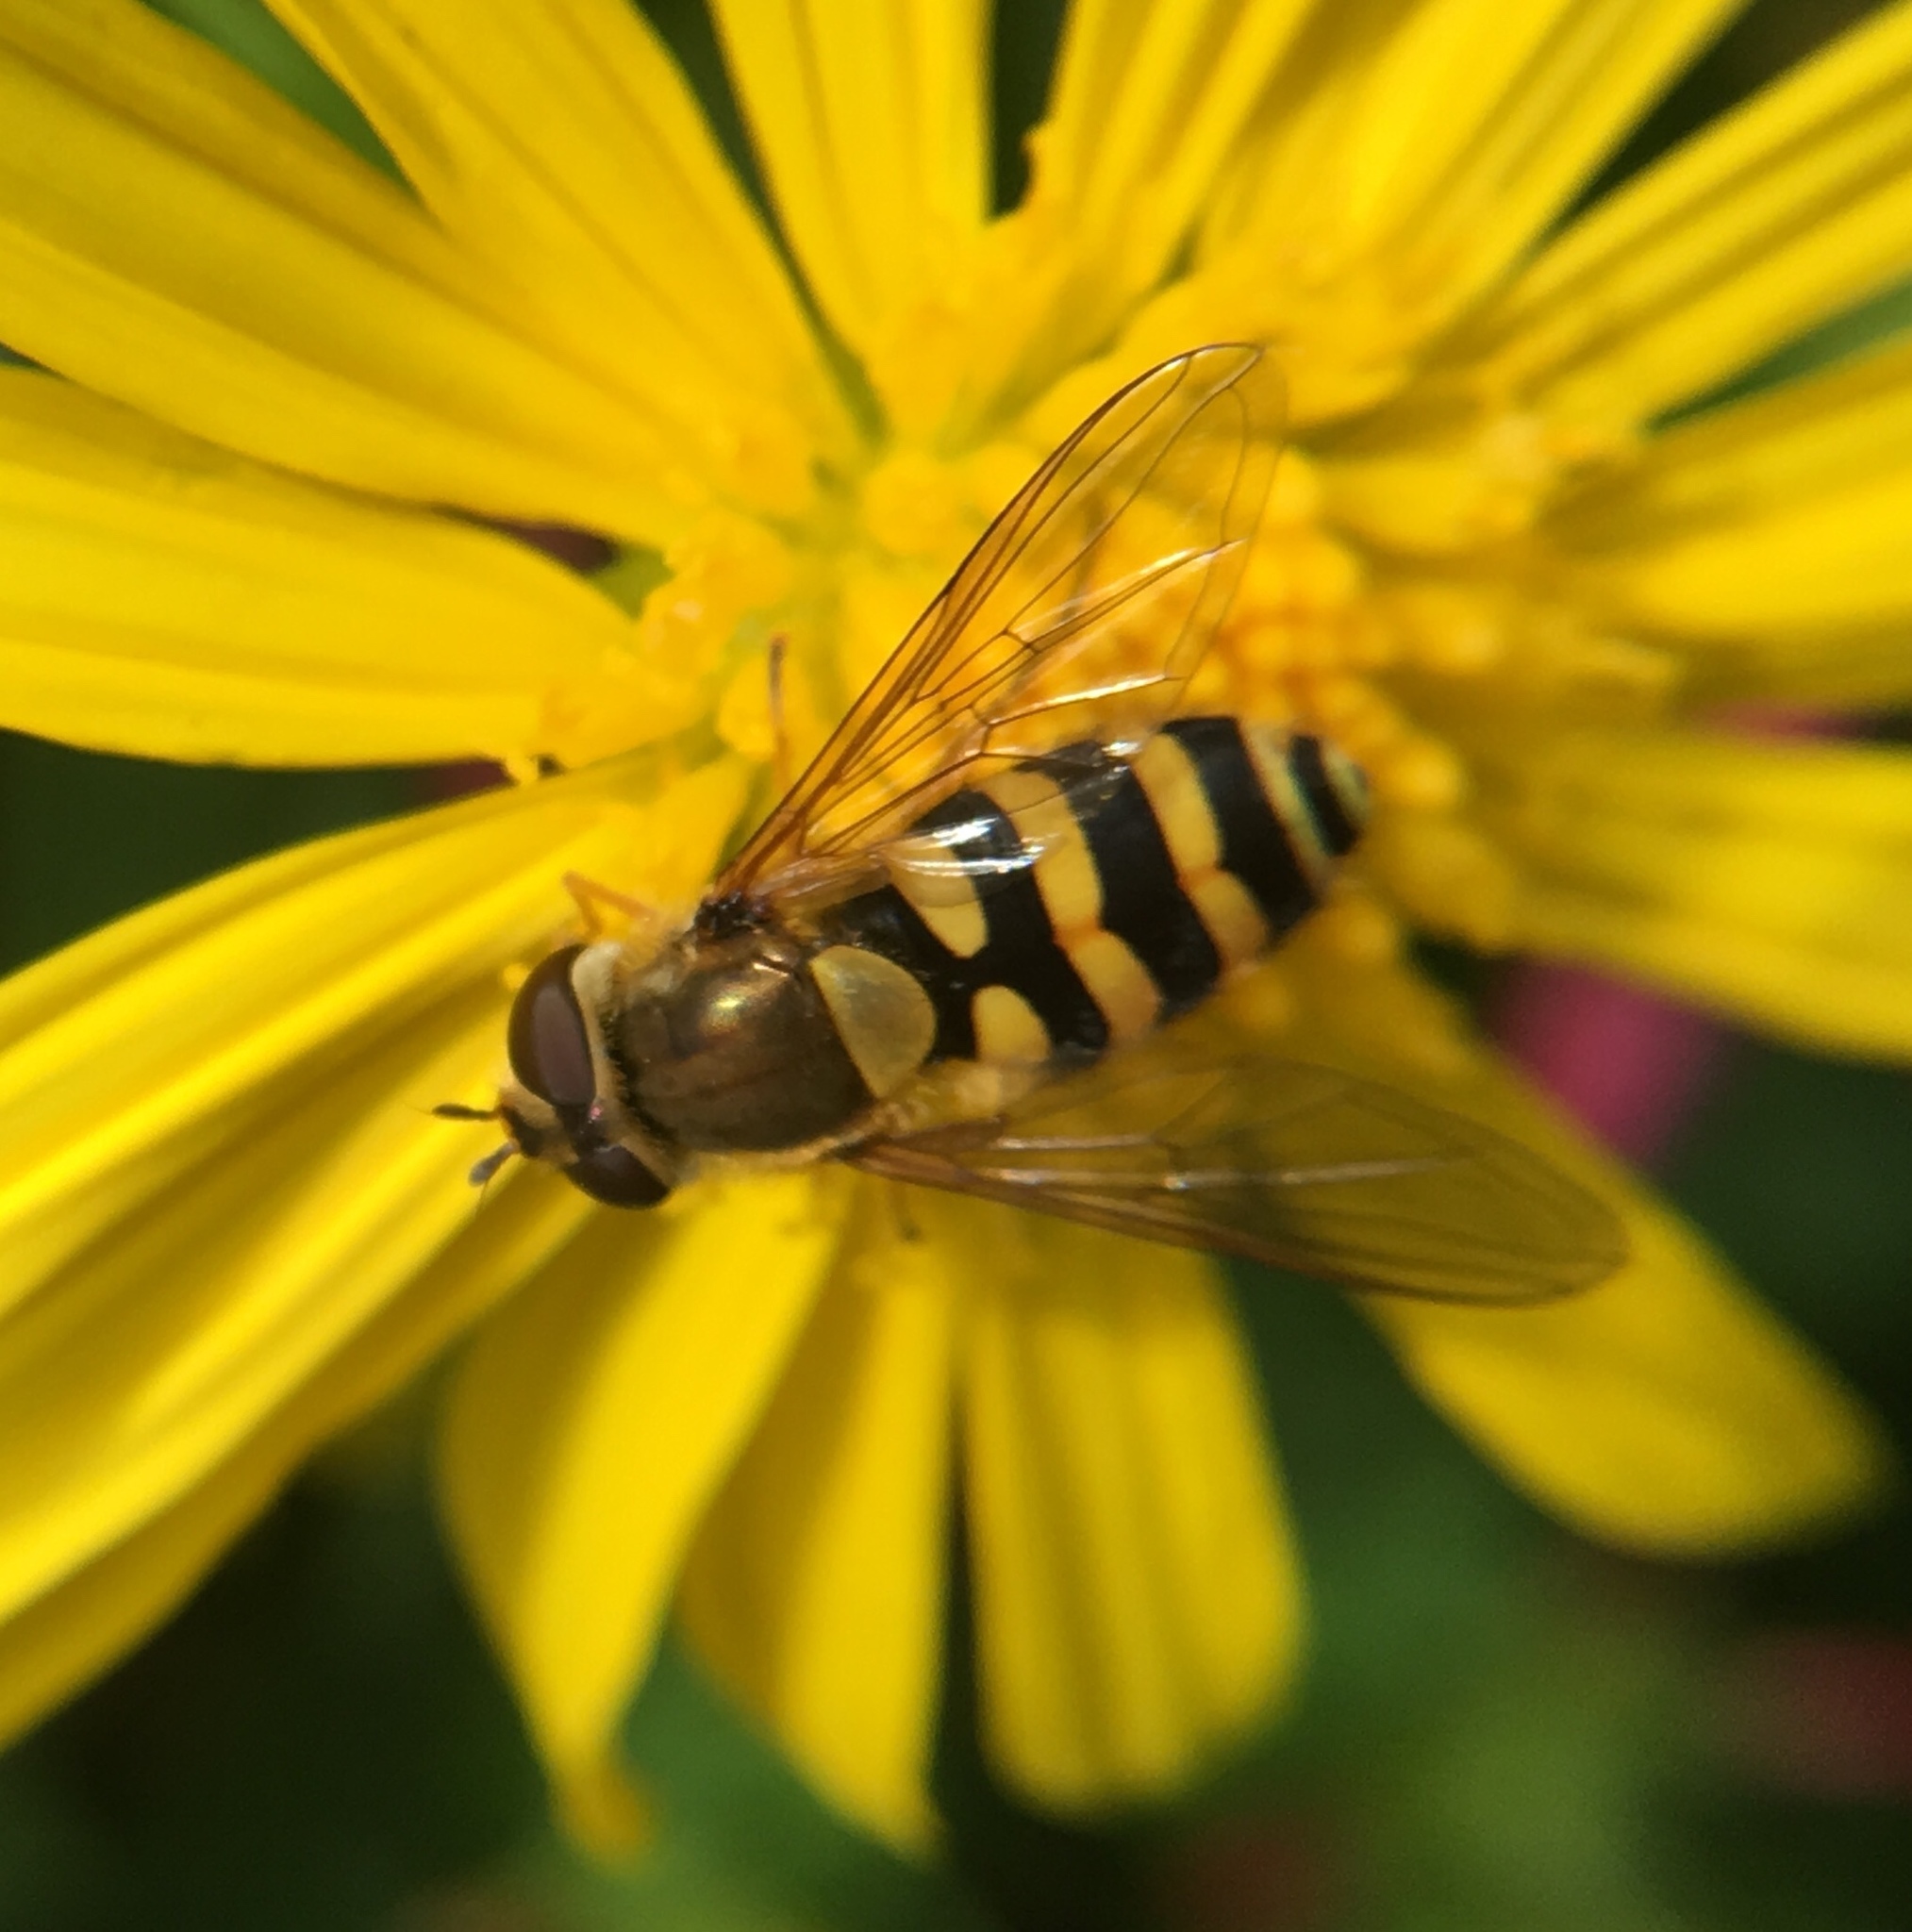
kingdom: Animalia
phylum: Arthropoda
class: Insecta
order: Diptera
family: Syrphidae
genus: Syrphus
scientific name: Syrphus ribesii
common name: Common flower fly
